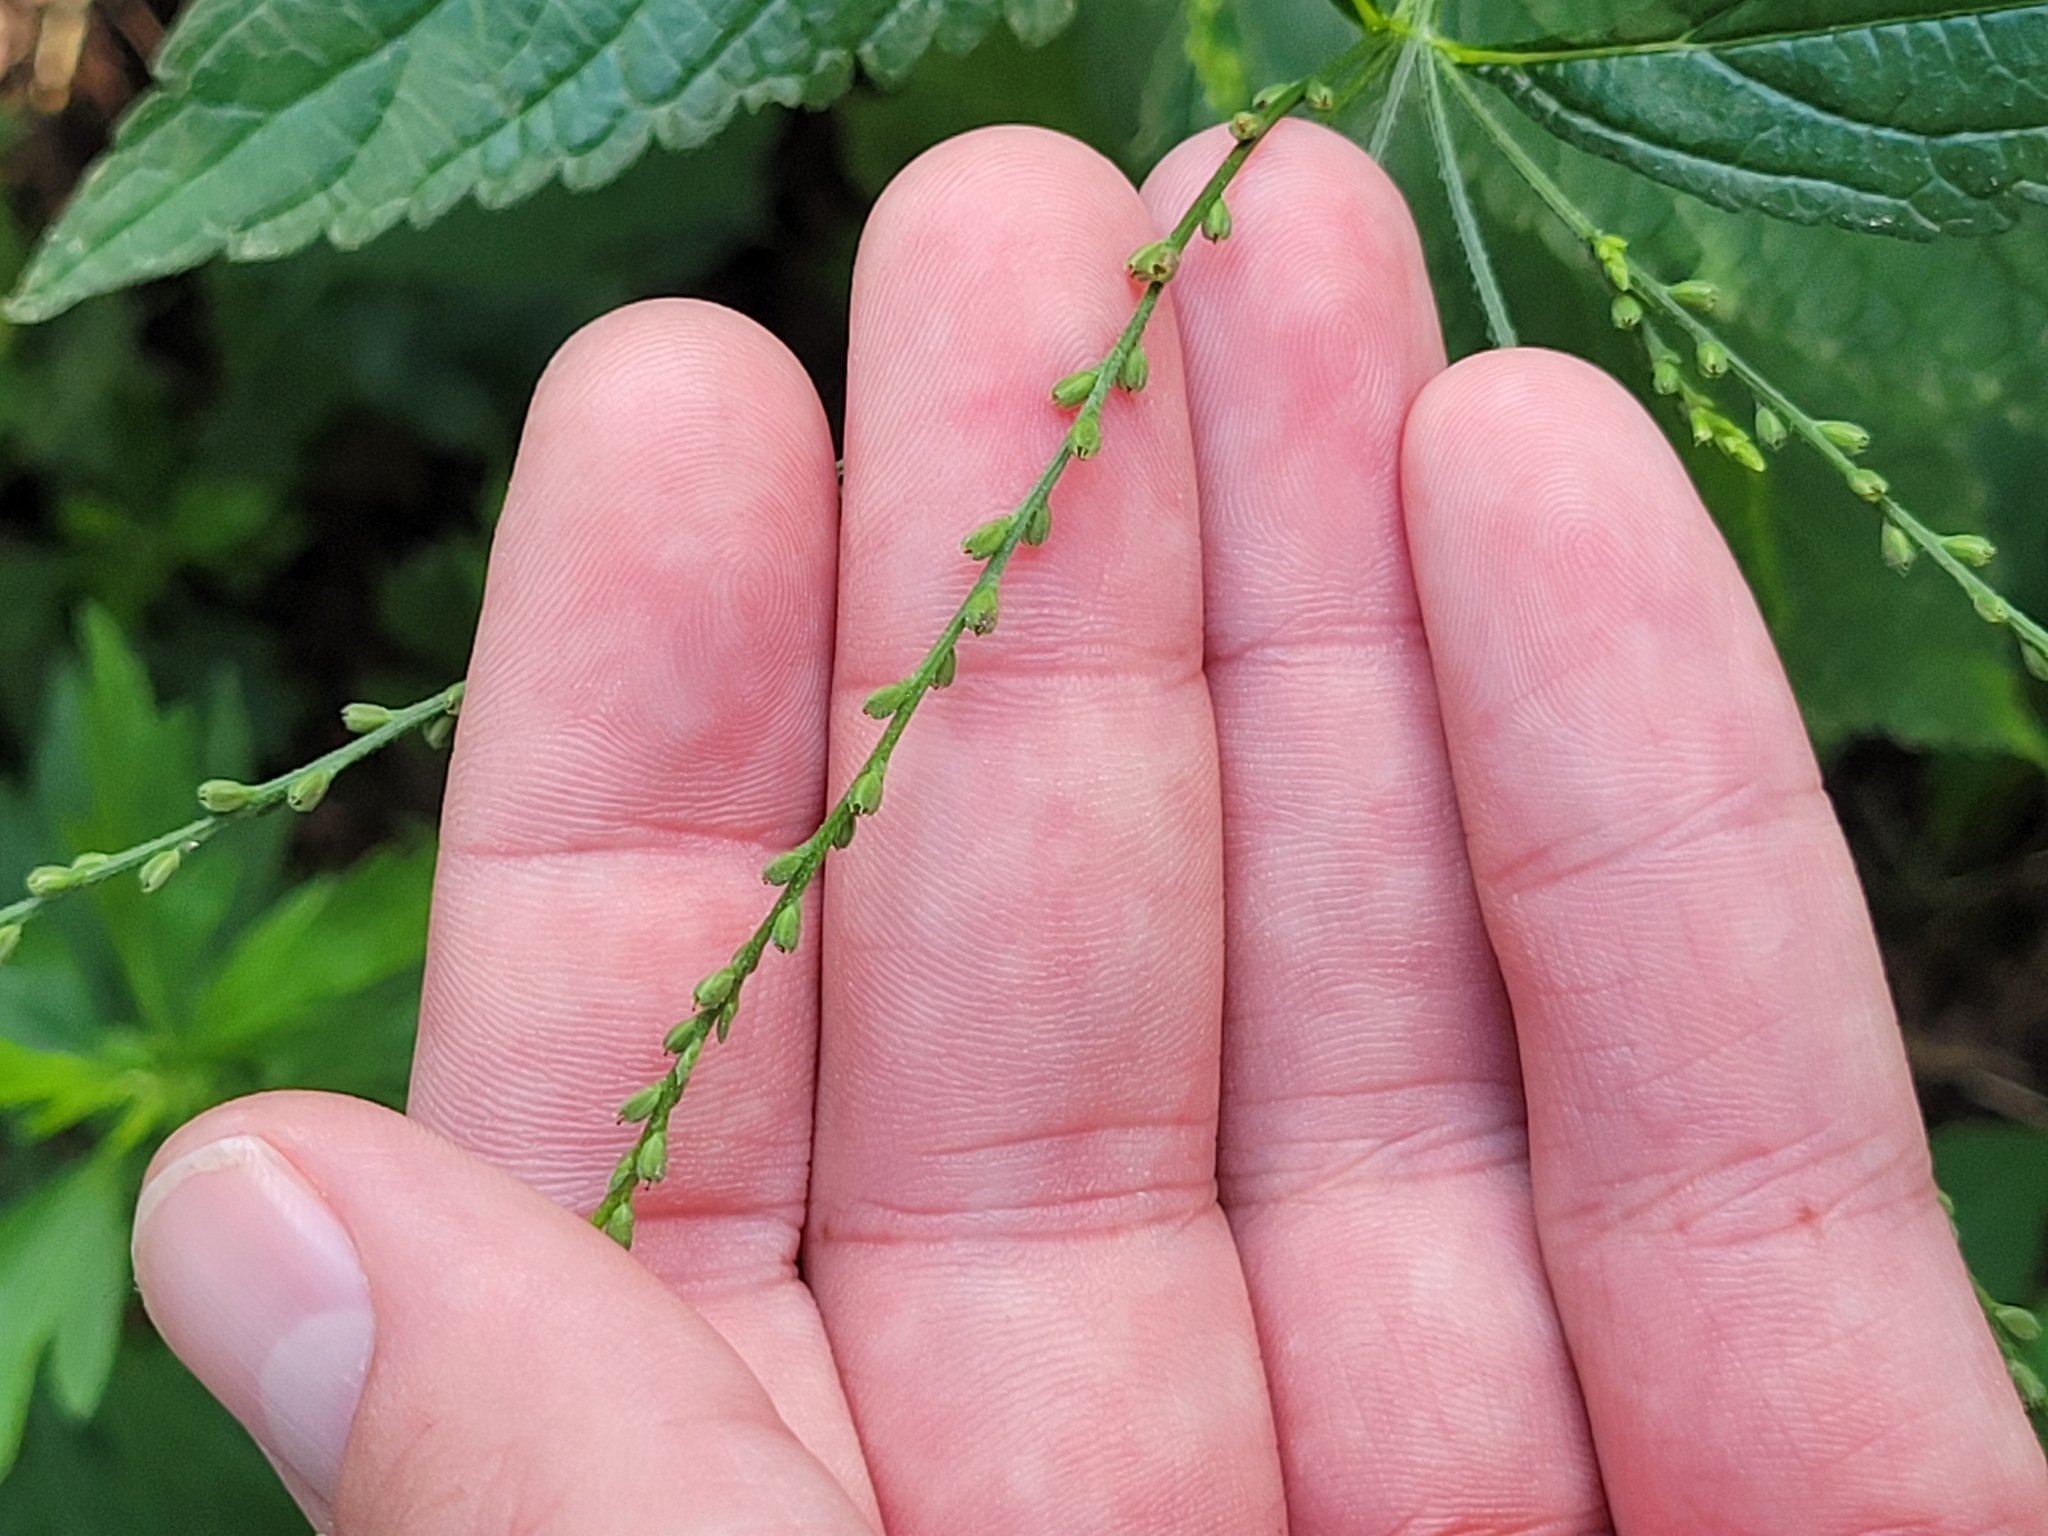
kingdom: Plantae
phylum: Tracheophyta
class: Magnoliopsida
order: Lamiales
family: Verbenaceae
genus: Verbena
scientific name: Verbena urticifolia
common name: Nettle-leaved vervain
